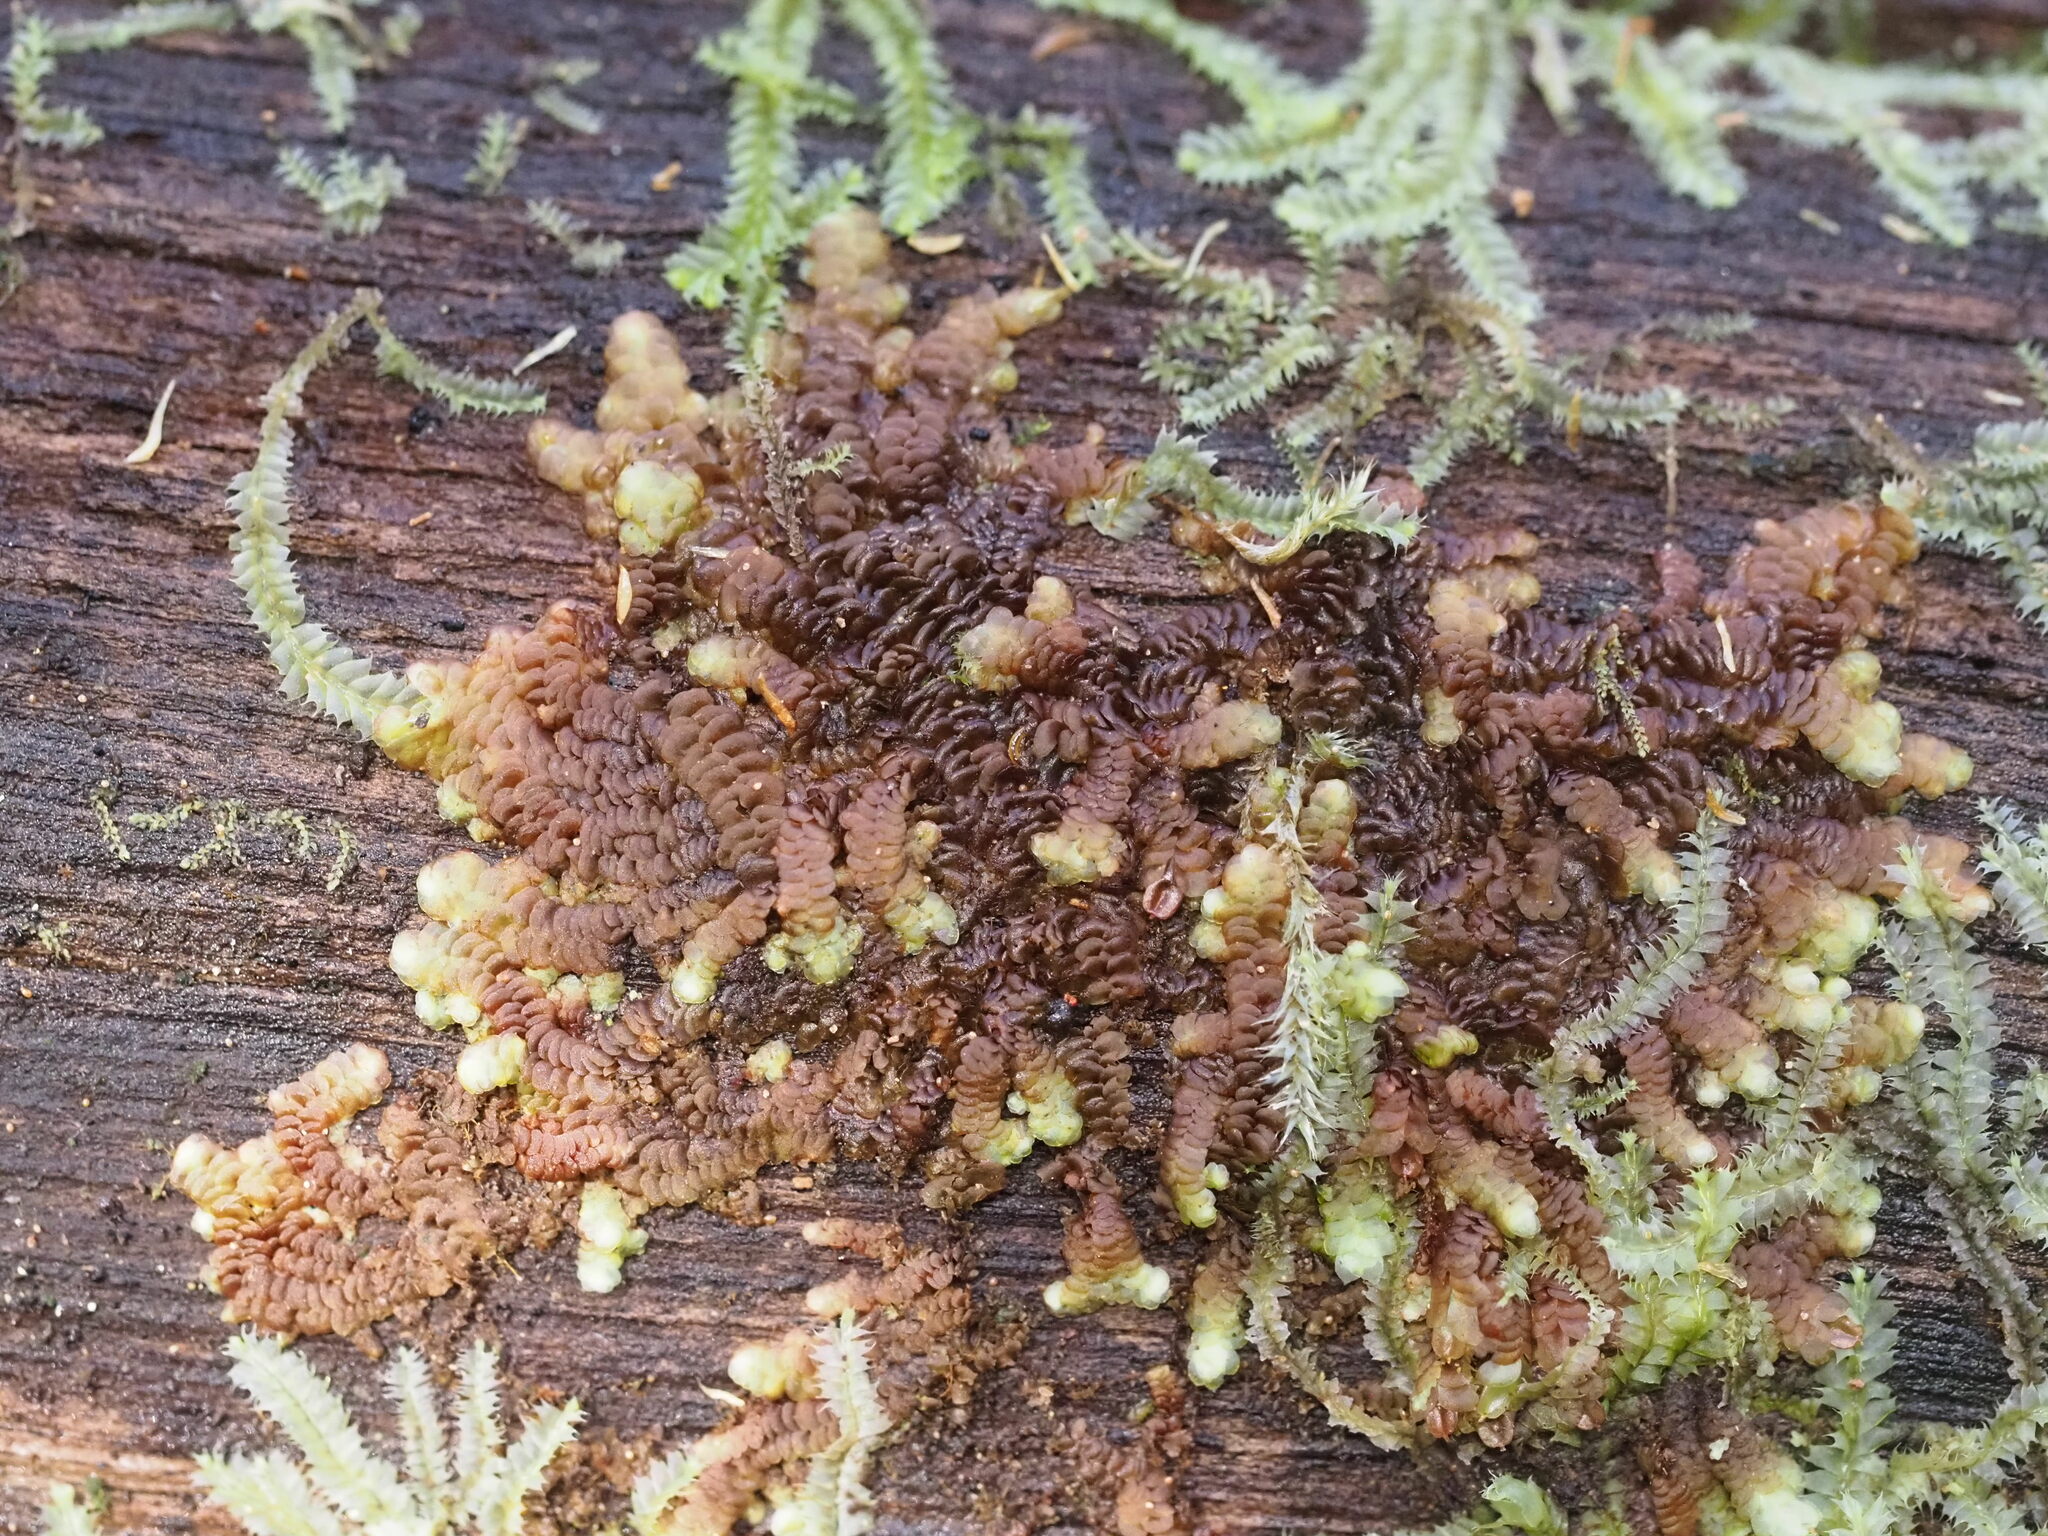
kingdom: Plantae
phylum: Marchantiophyta
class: Jungermanniopsida
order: Porellales
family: Frullaniaceae
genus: Frullania
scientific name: Frullania hypoleuca
